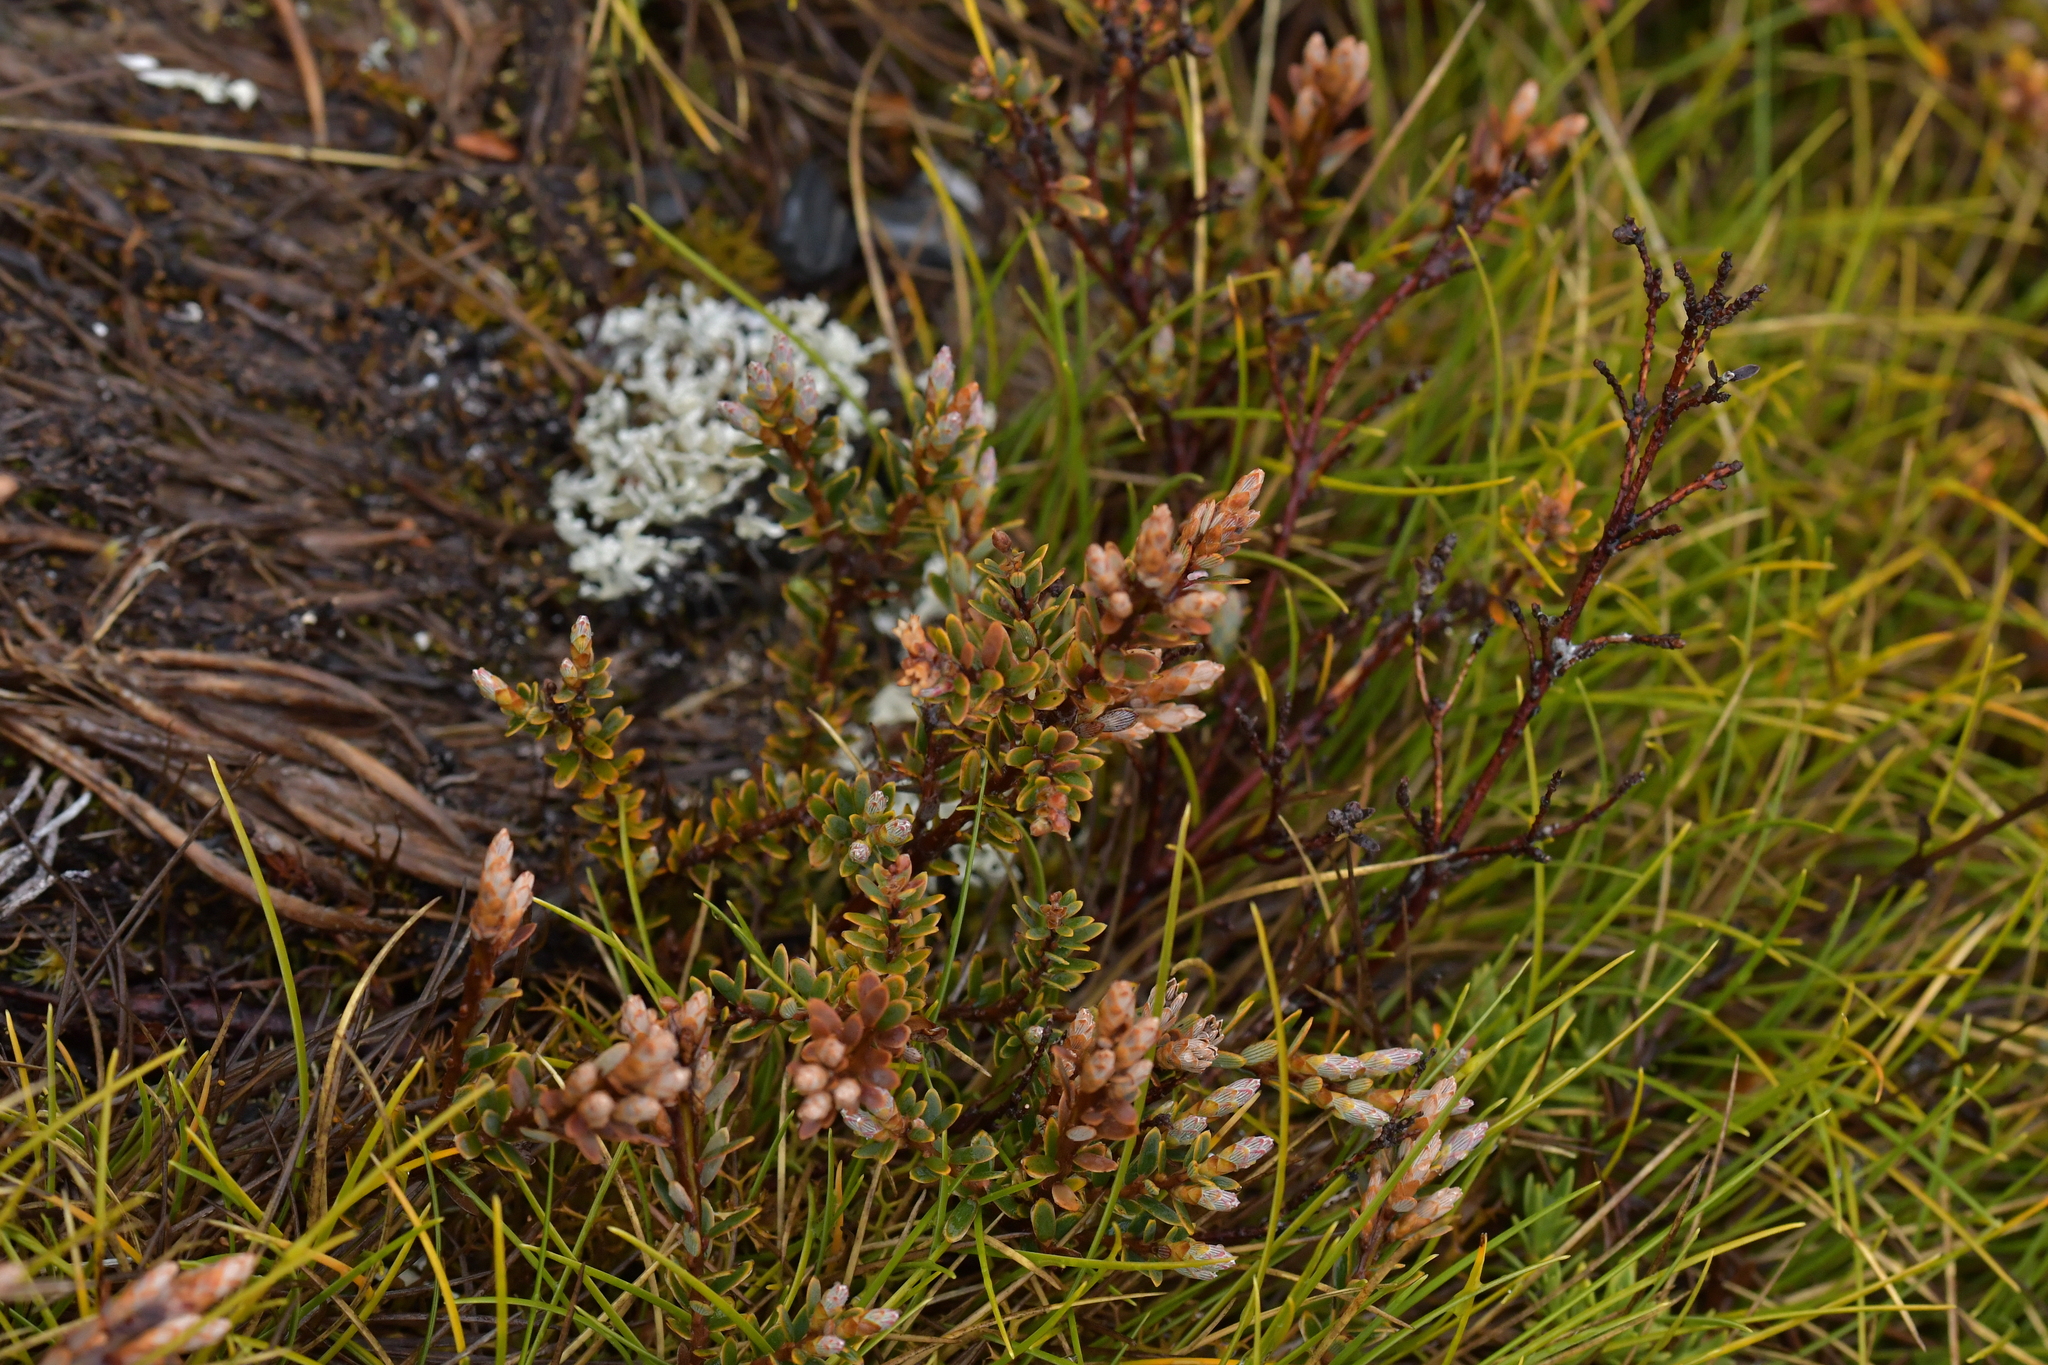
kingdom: Plantae
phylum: Tracheophyta
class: Magnoliopsida
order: Ericales
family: Ericaceae
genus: Acrothamnus
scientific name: Acrothamnus colensoi
